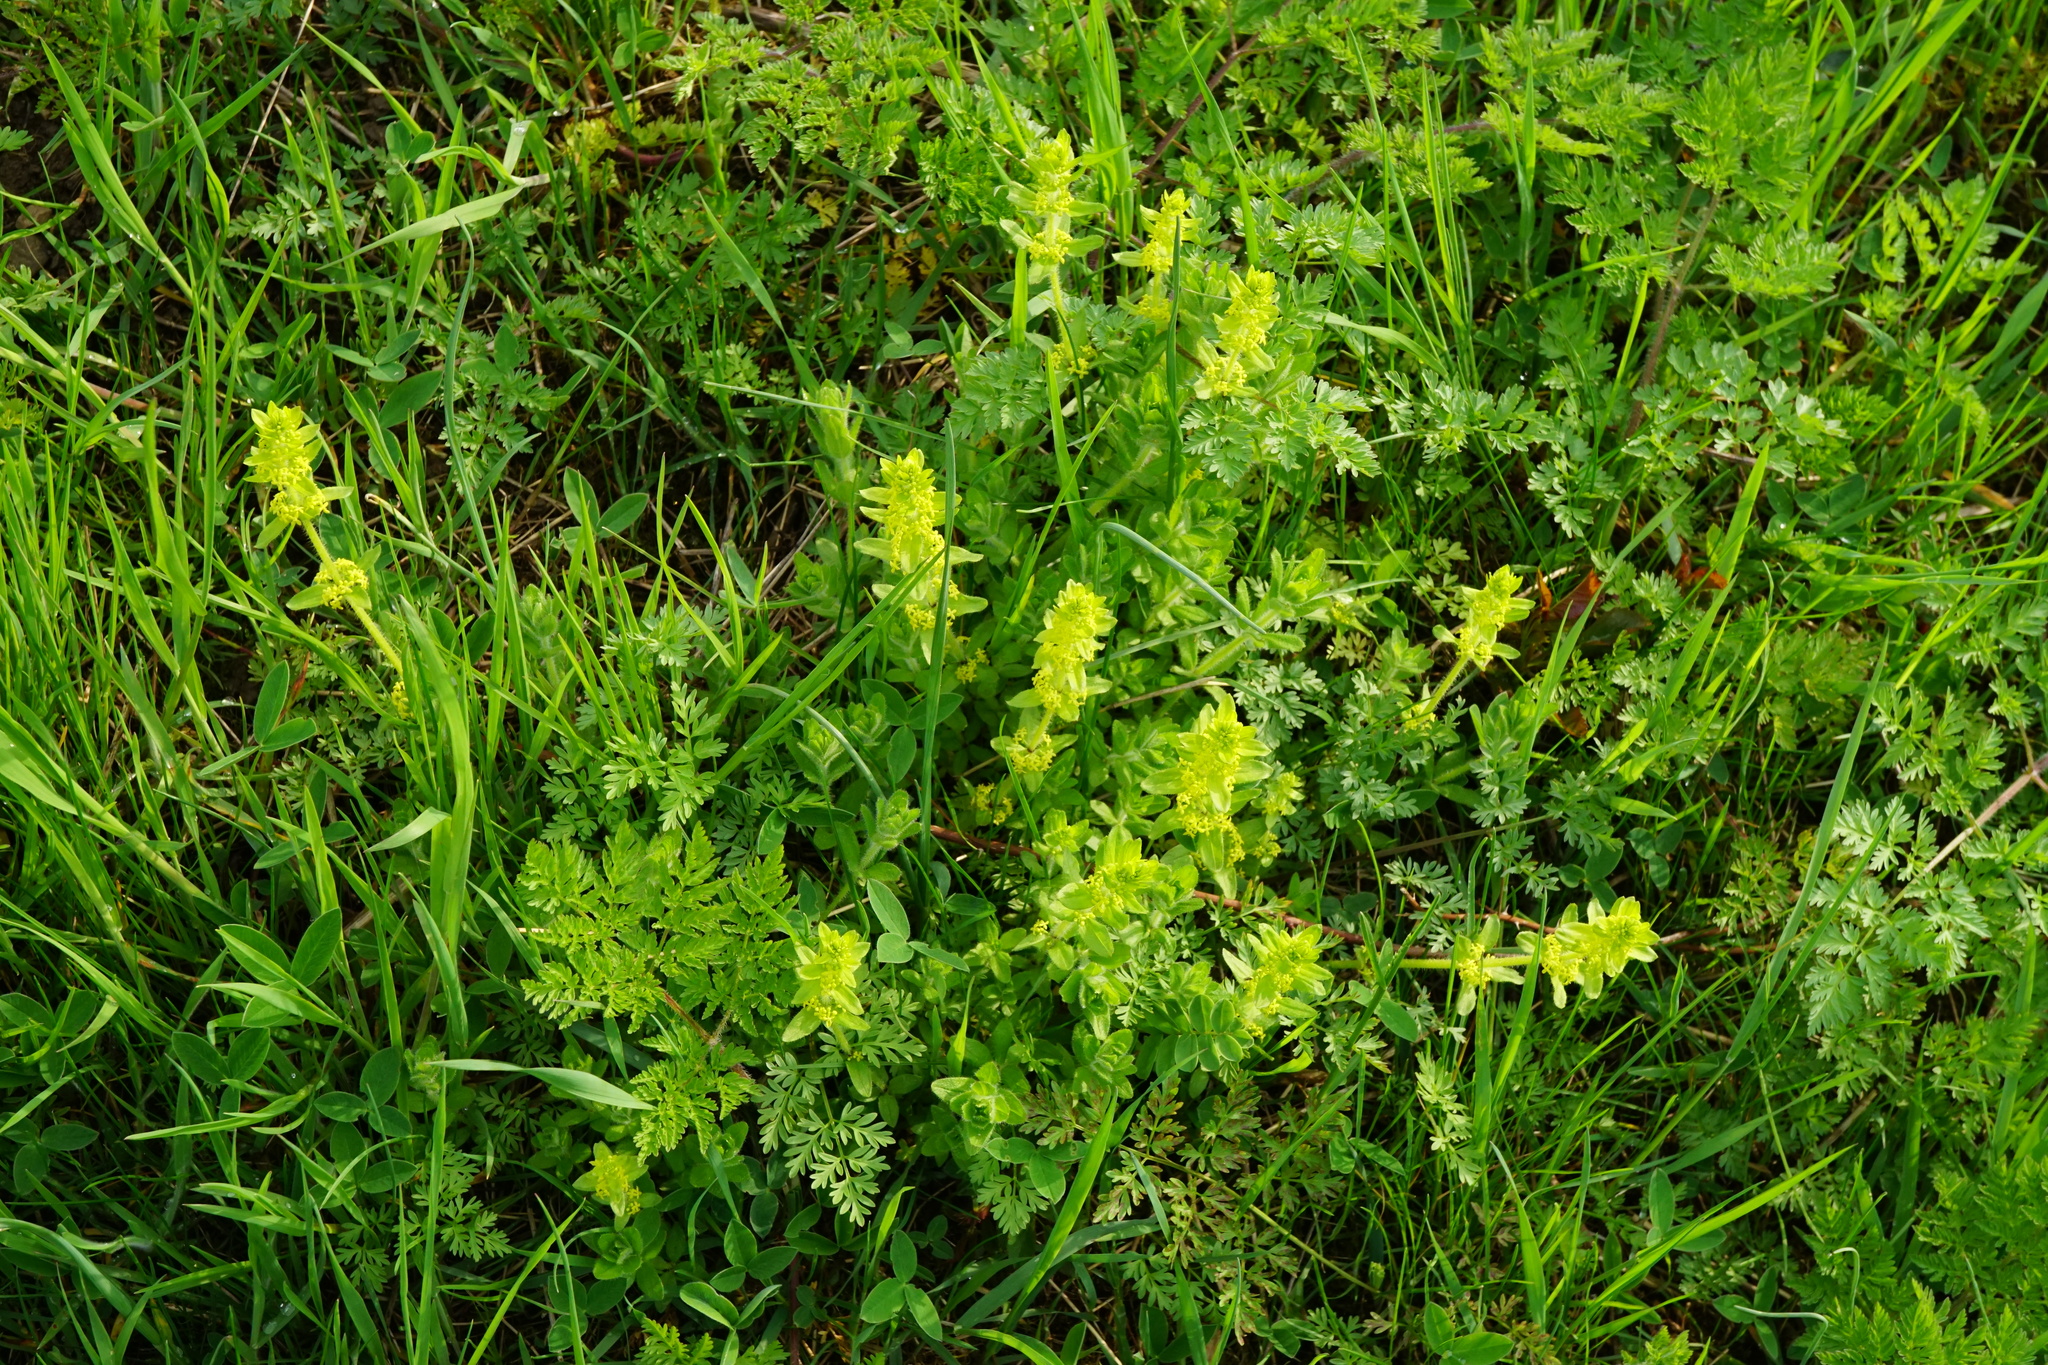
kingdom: Plantae
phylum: Tracheophyta
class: Magnoliopsida
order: Gentianales
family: Rubiaceae
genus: Cruciata
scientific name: Cruciata laevipes
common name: Crosswort
